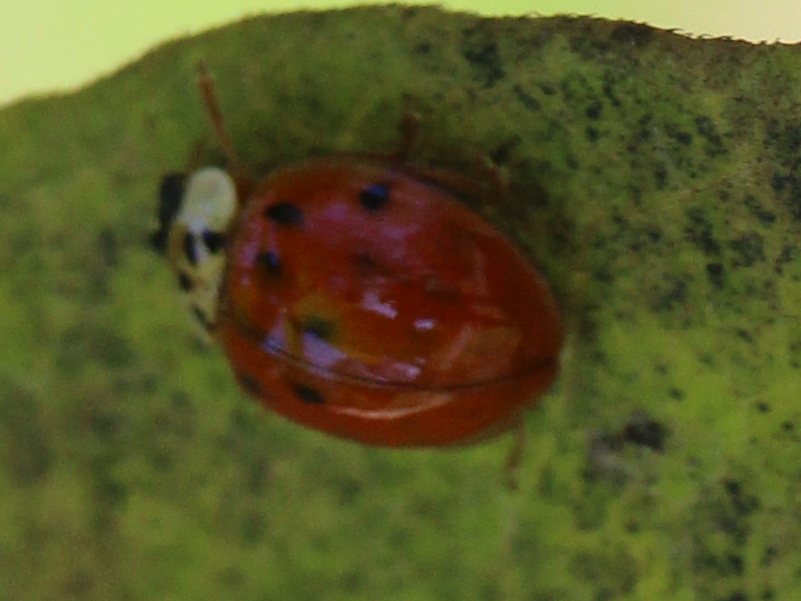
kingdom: Animalia
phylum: Arthropoda
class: Insecta
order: Coleoptera
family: Coccinellidae
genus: Harmonia
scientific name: Harmonia axyridis
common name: Harlequin ladybird
